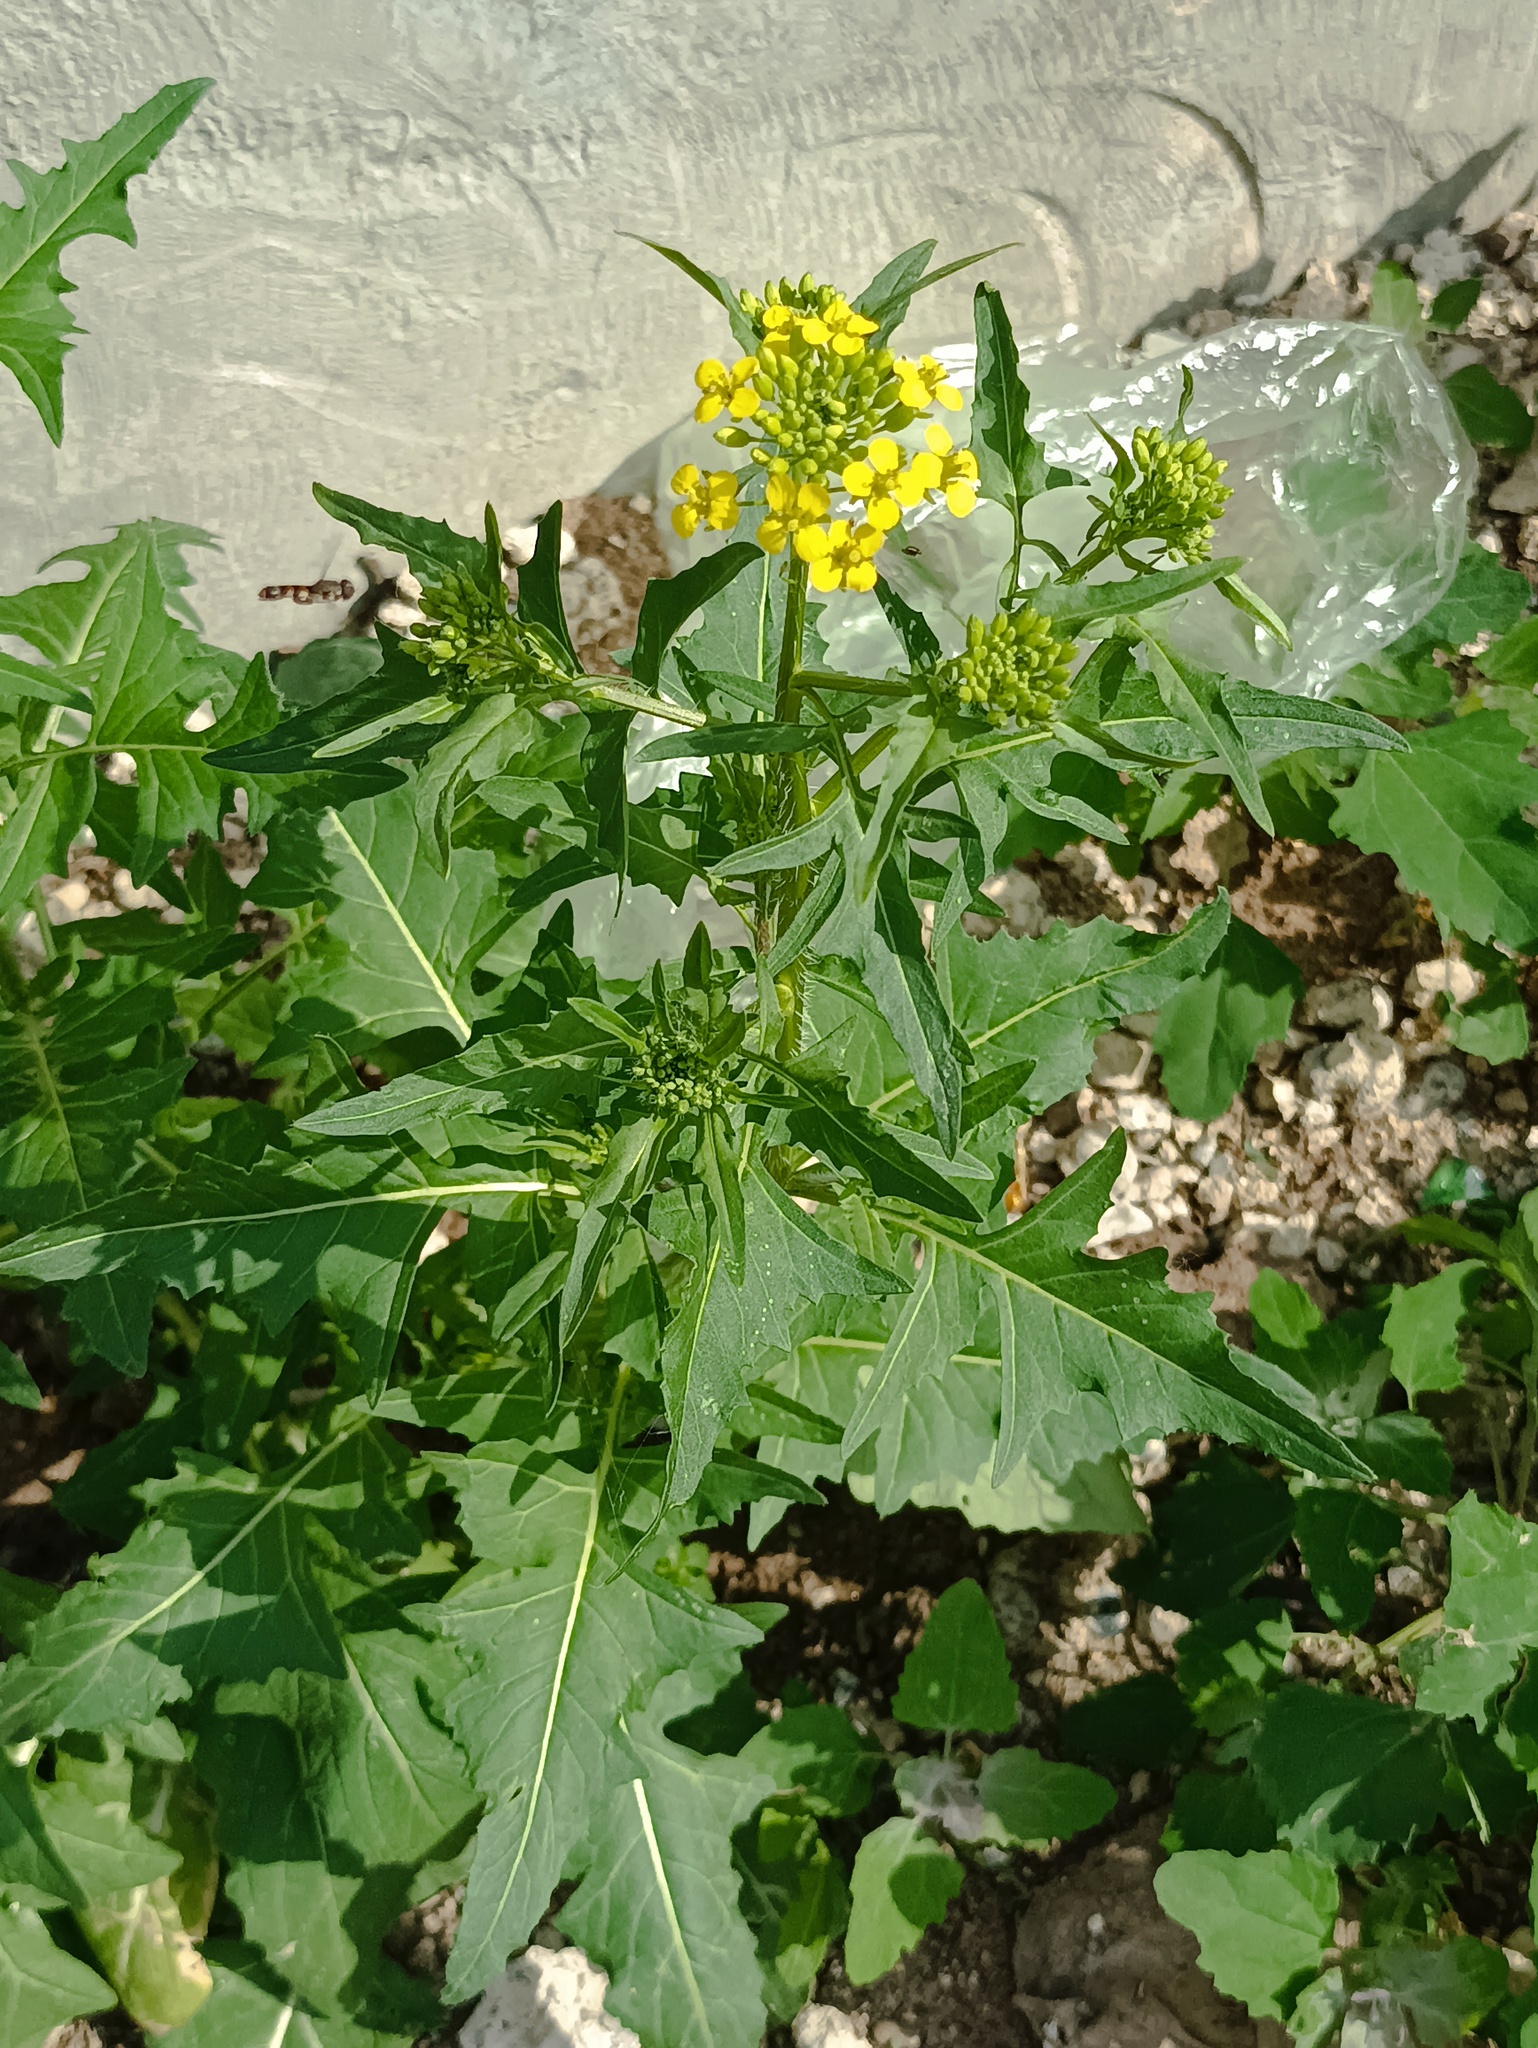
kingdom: Plantae
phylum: Tracheophyta
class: Magnoliopsida
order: Brassicales
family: Brassicaceae
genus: Sisymbrium
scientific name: Sisymbrium loeselii
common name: False london-rocket
